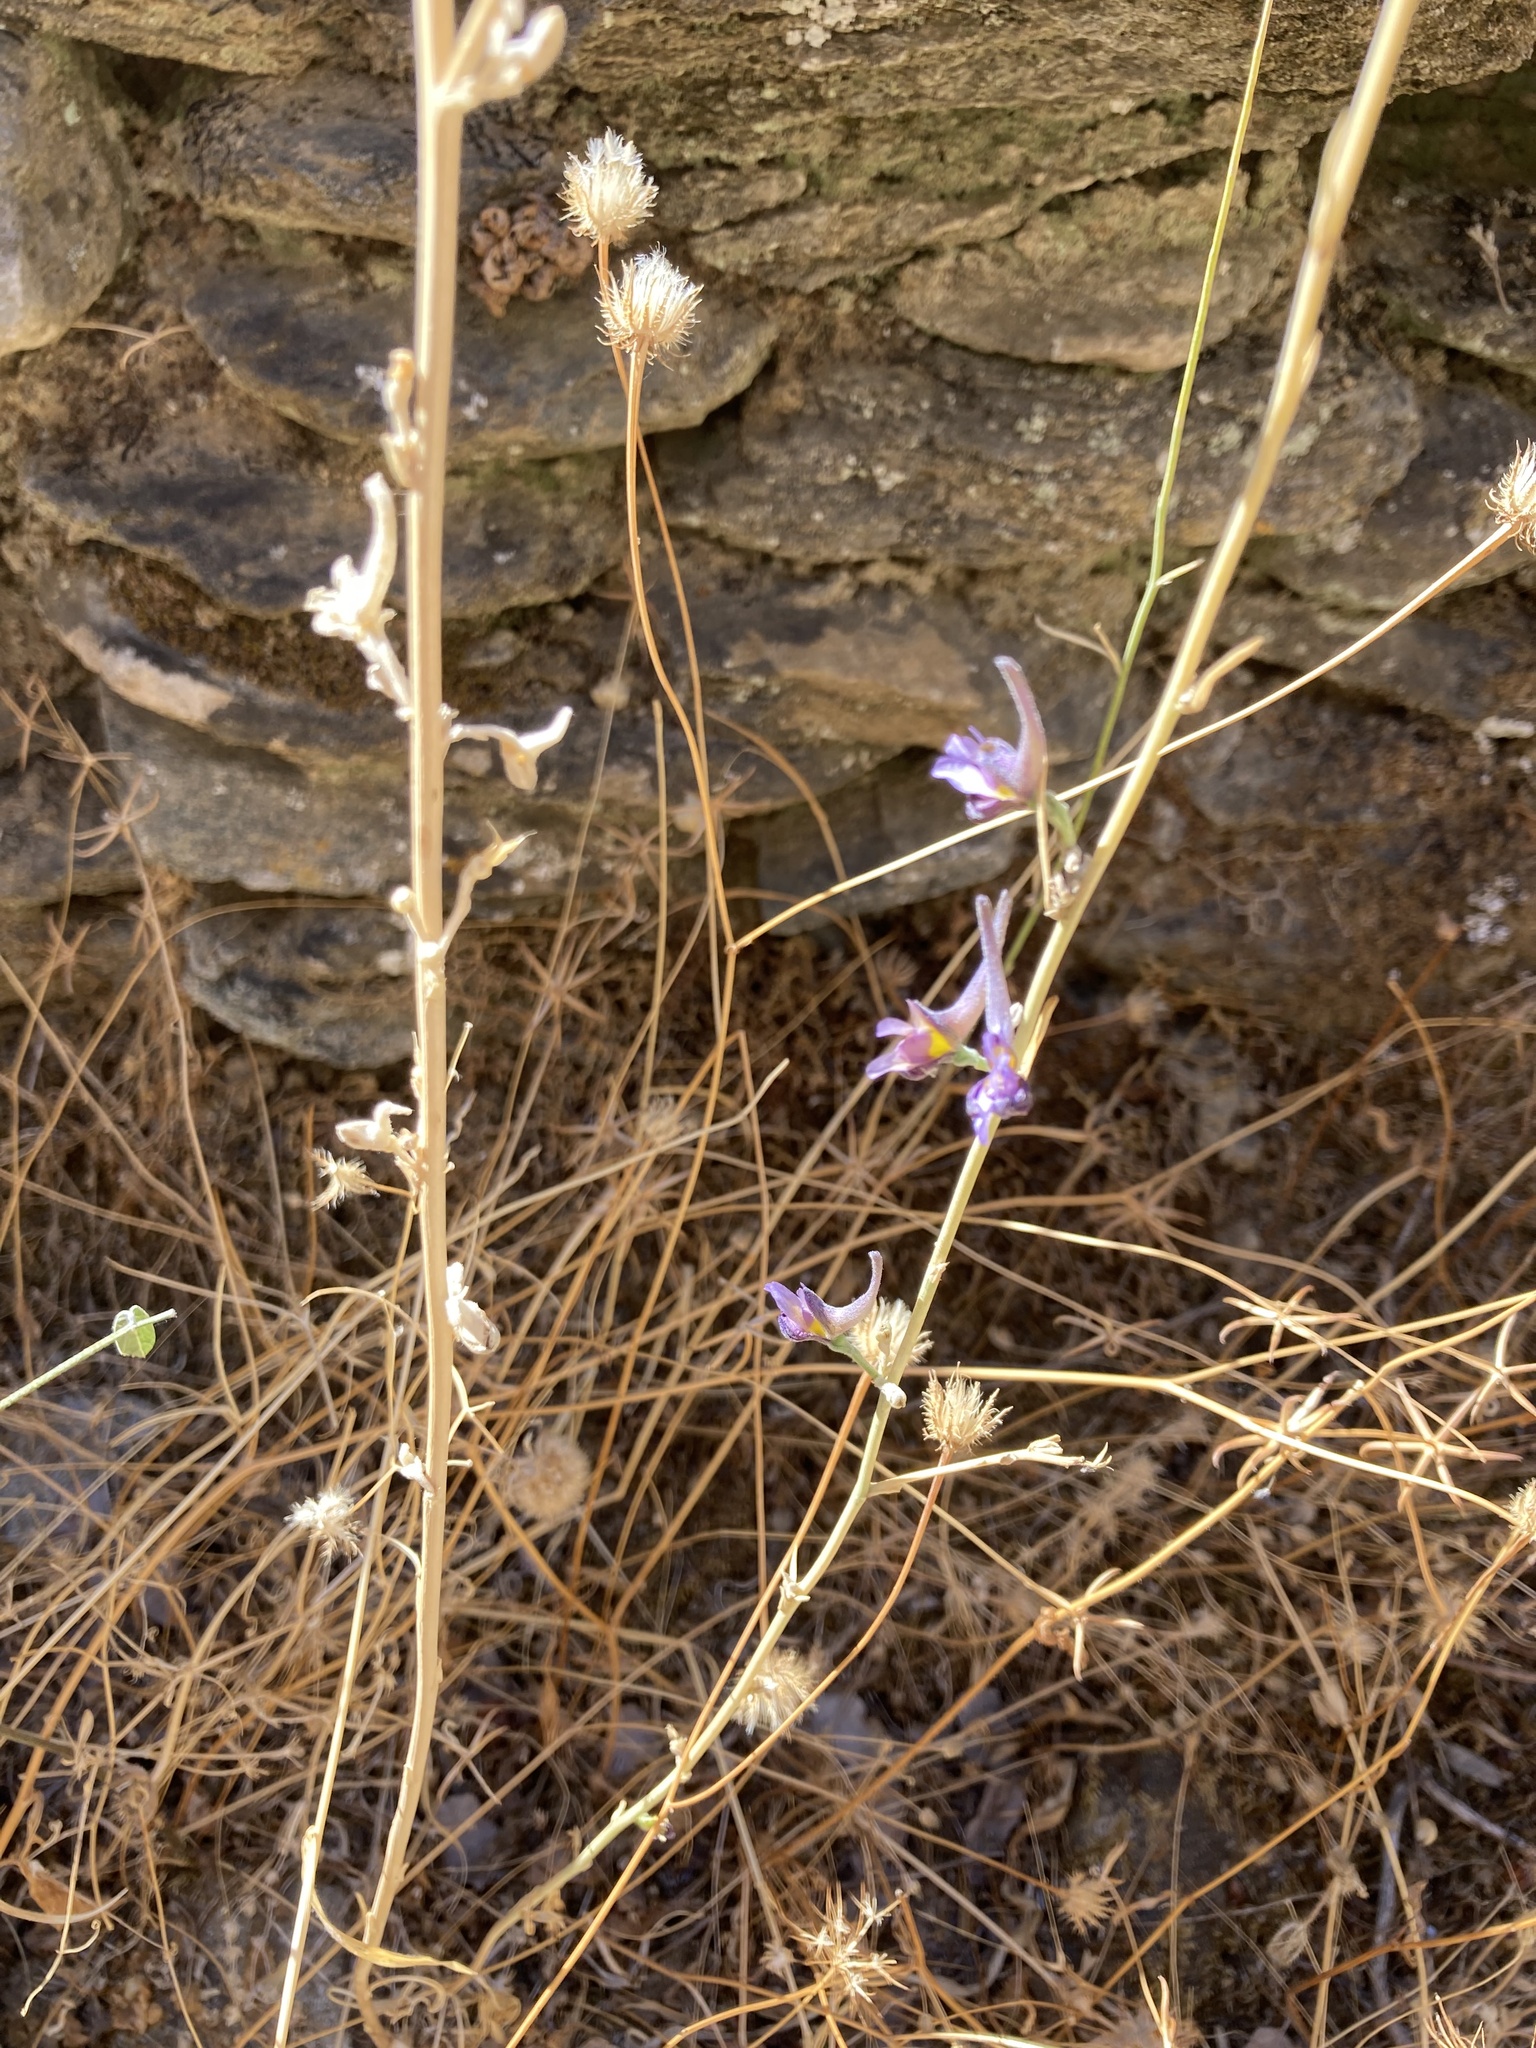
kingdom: Plantae
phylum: Tracheophyta
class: Magnoliopsida
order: Ranunculales
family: Ranunculaceae
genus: Delphinium
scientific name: Delphinium peregrinum
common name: Violet larkspur
